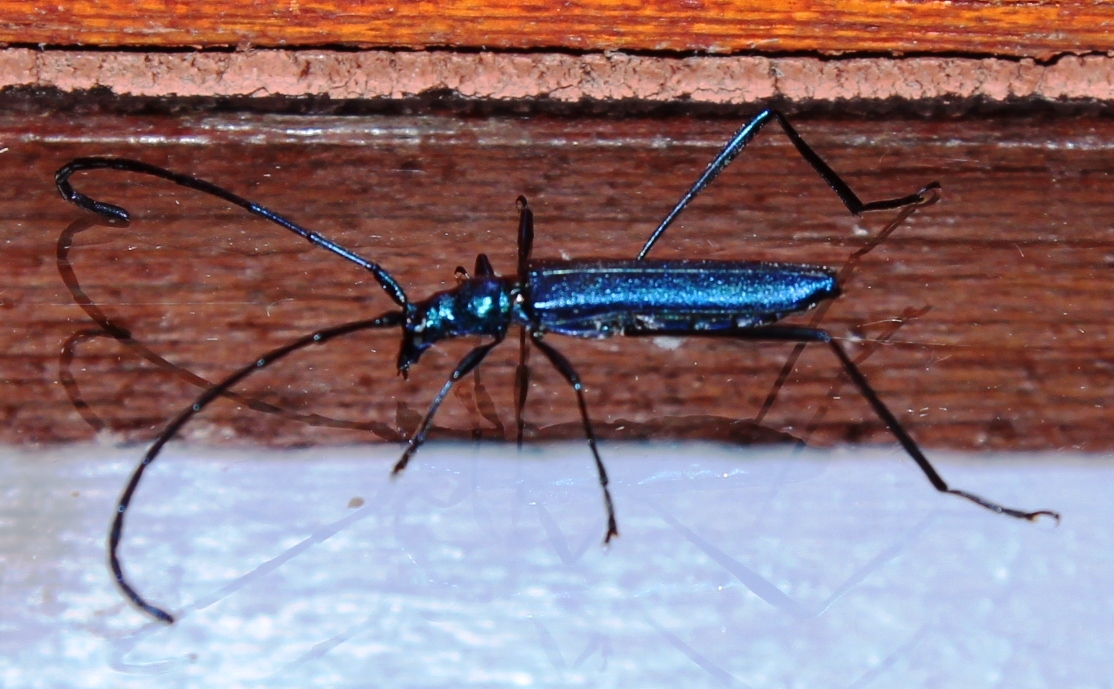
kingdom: Animalia
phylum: Arthropoda
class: Insecta
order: Coleoptera
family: Cerambycidae
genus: Promeces
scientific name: Promeces longipes
